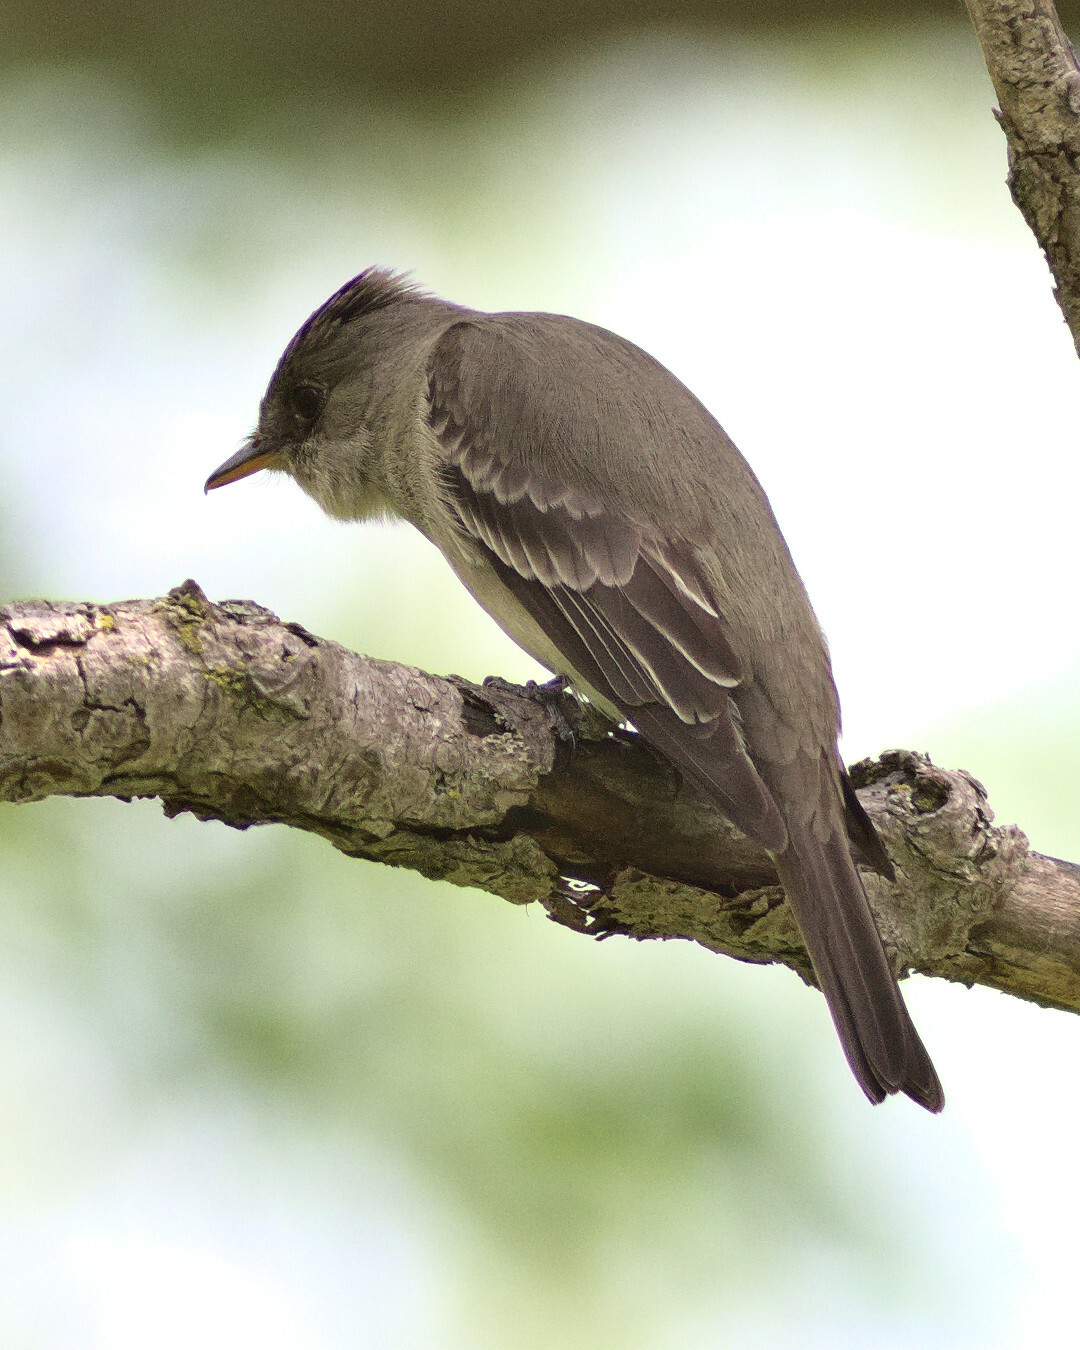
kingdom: Animalia
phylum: Chordata
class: Aves
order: Passeriformes
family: Tyrannidae
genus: Contopus
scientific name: Contopus virens
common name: Eastern wood-pewee
